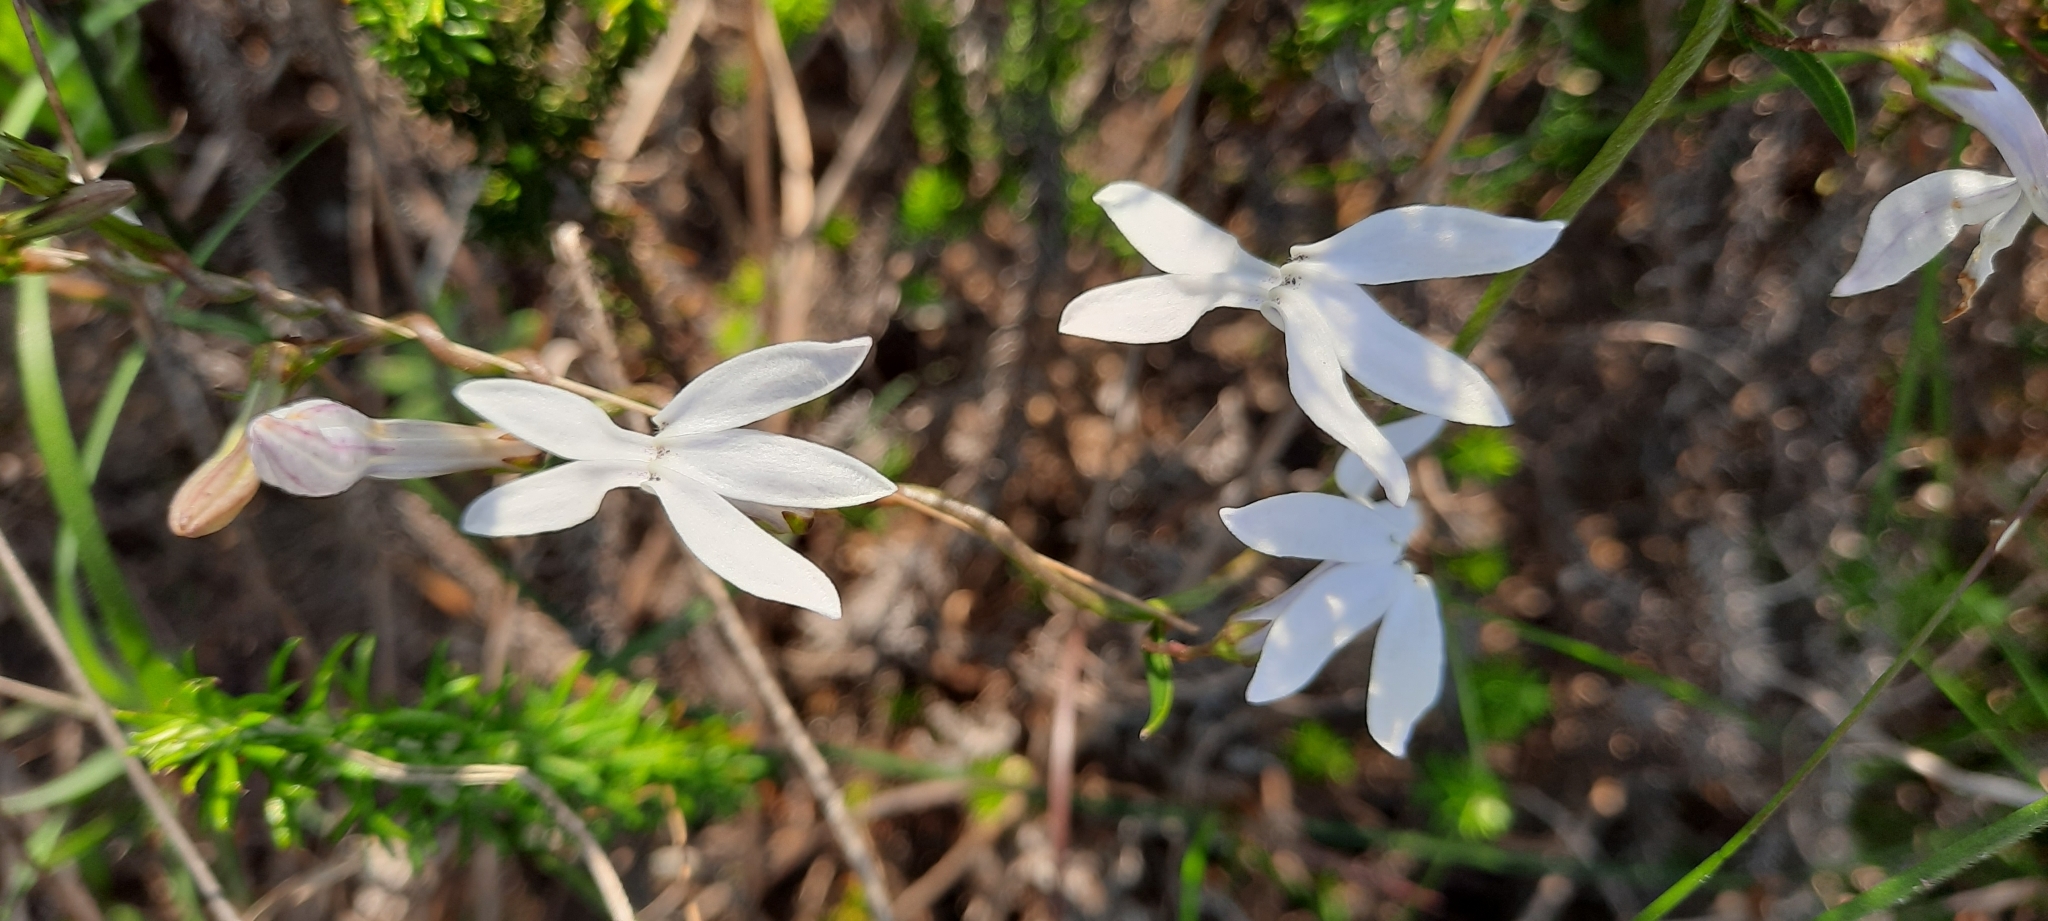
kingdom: Plantae
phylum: Tracheophyta
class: Magnoliopsida
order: Asterales
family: Campanulaceae
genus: Cyphia
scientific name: Cyphia volubilis
